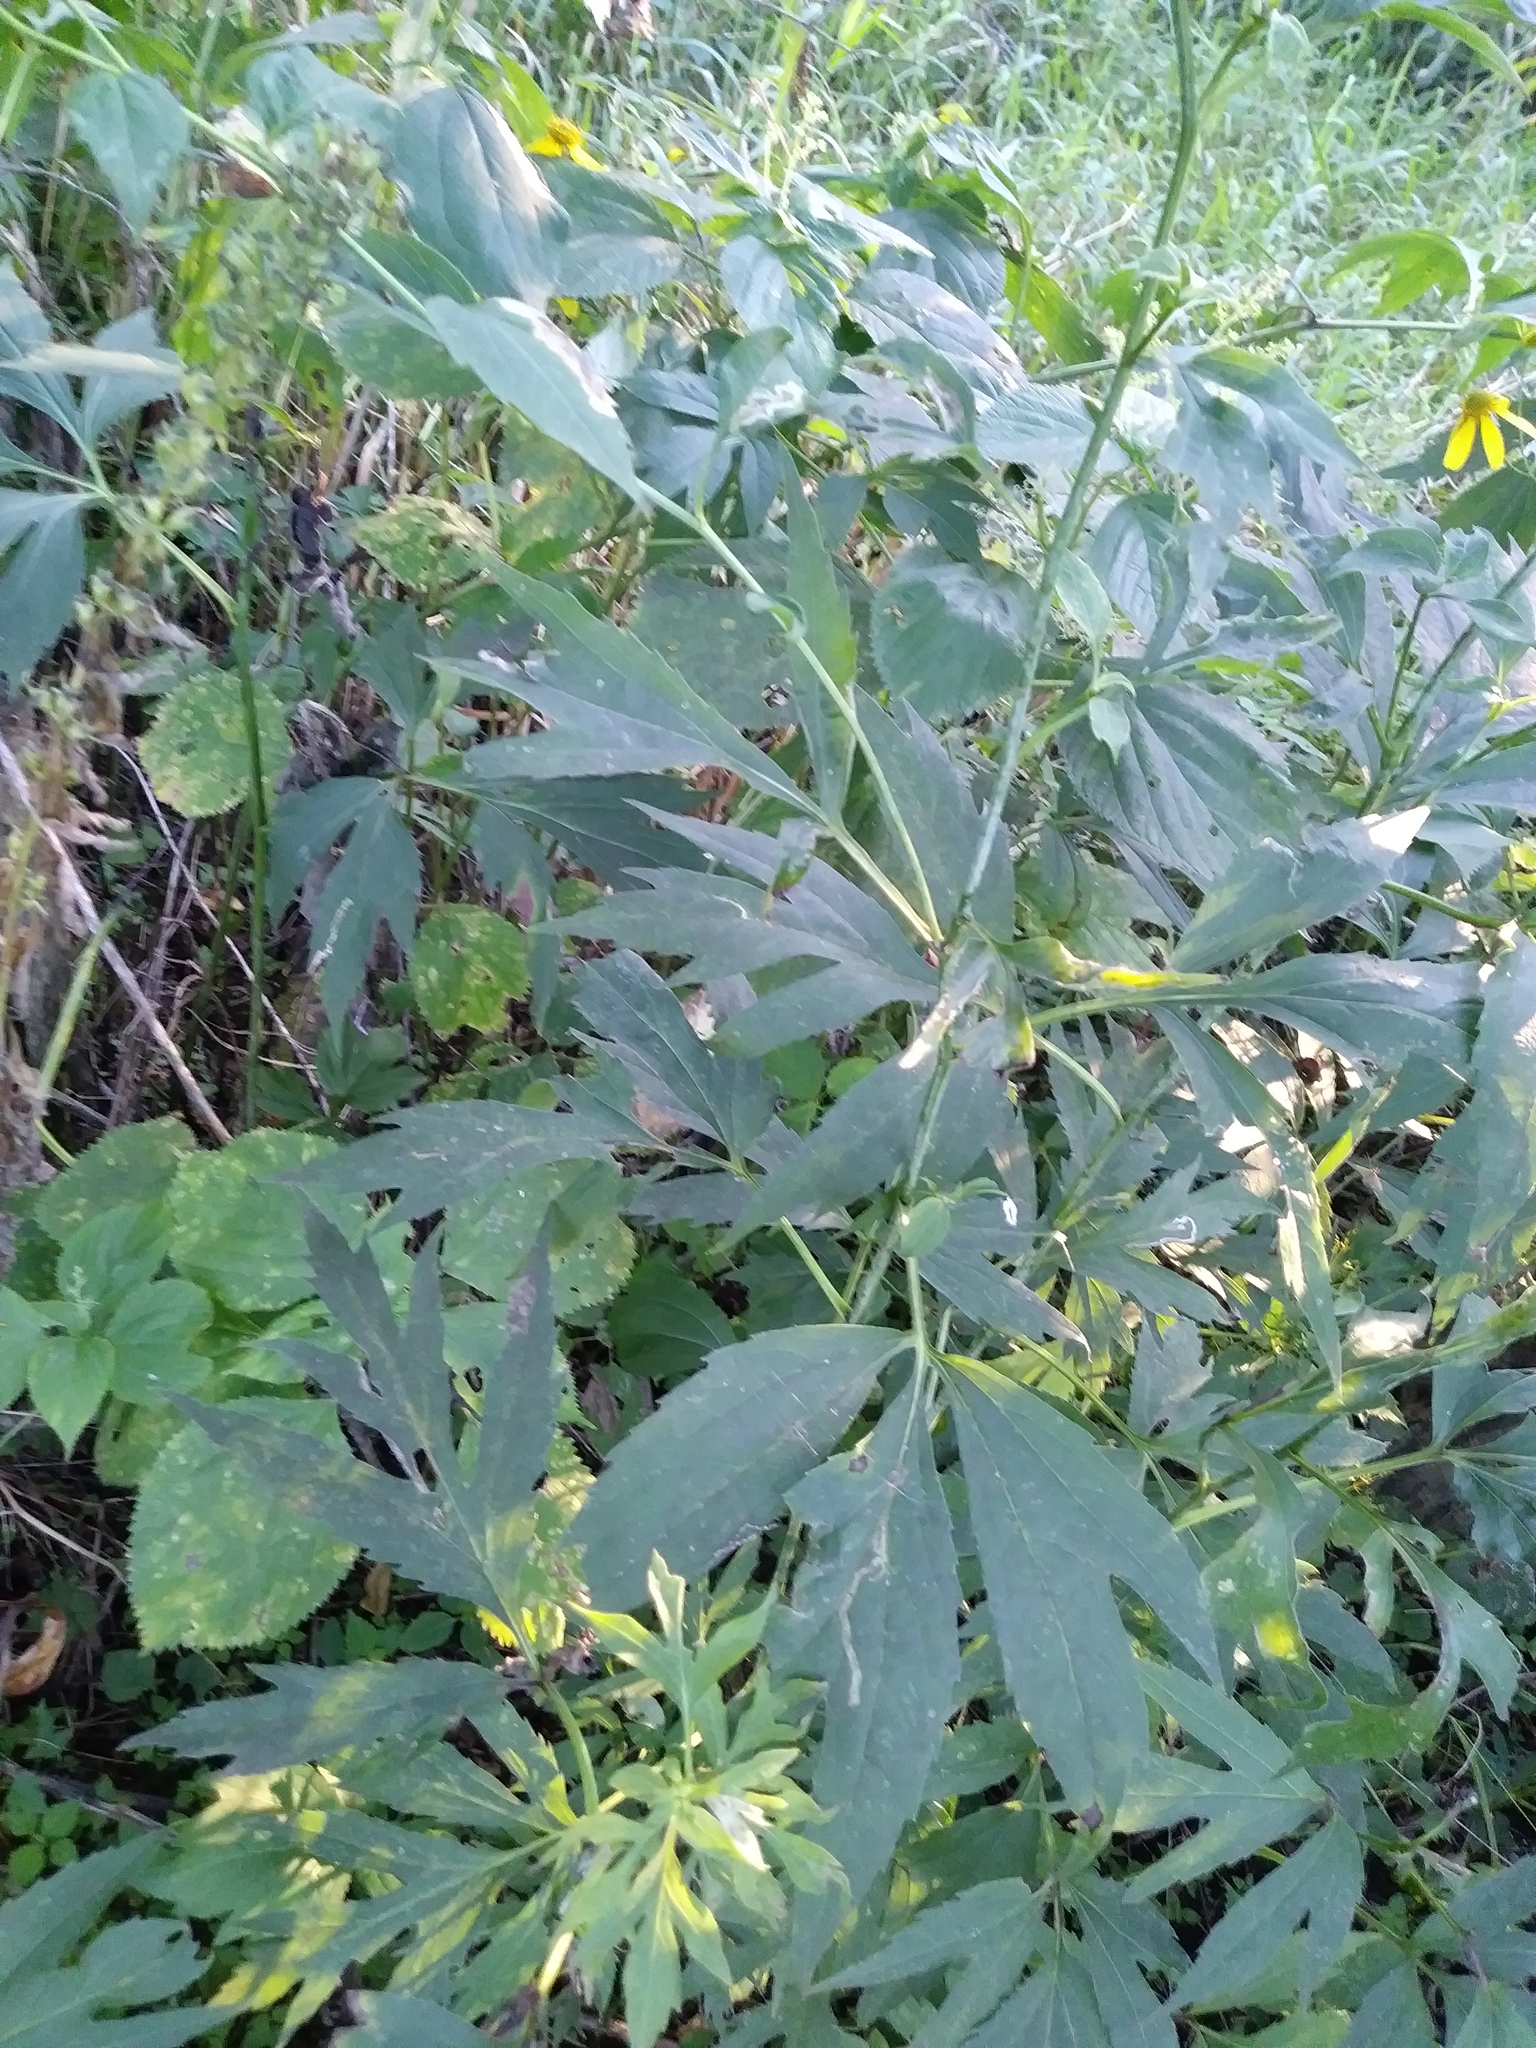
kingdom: Plantae
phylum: Tracheophyta
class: Magnoliopsida
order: Asterales
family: Asteraceae
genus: Rudbeckia
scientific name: Rudbeckia laciniata
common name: Coneflower
